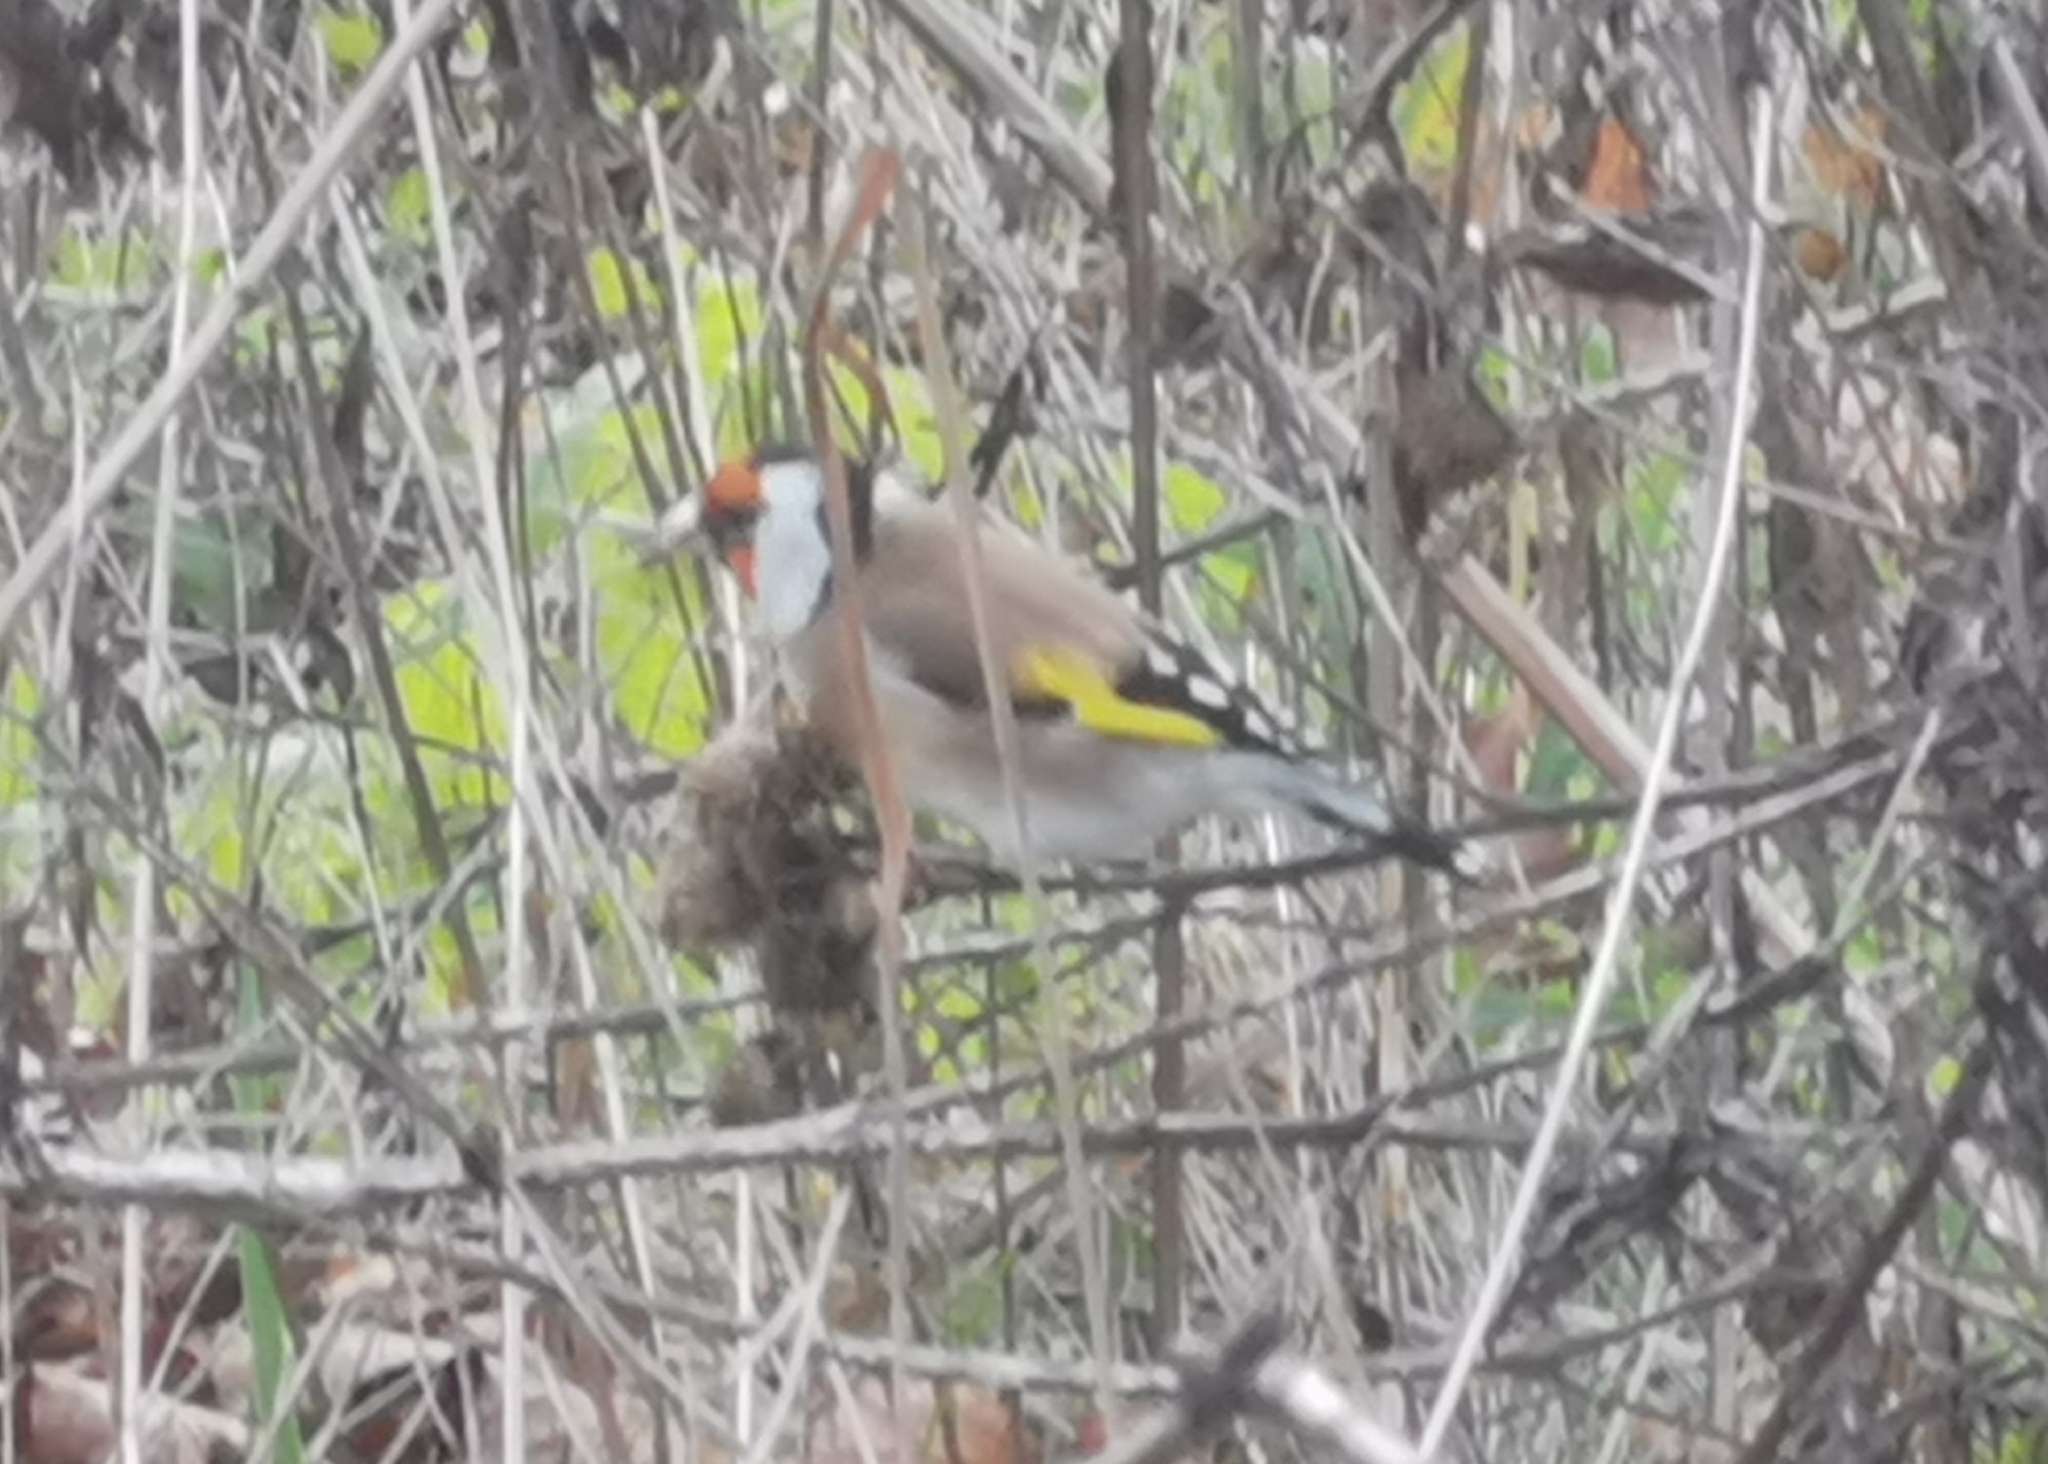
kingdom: Animalia
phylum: Chordata
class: Aves
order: Passeriformes
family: Fringillidae
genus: Carduelis
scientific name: Carduelis carduelis
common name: European goldfinch
